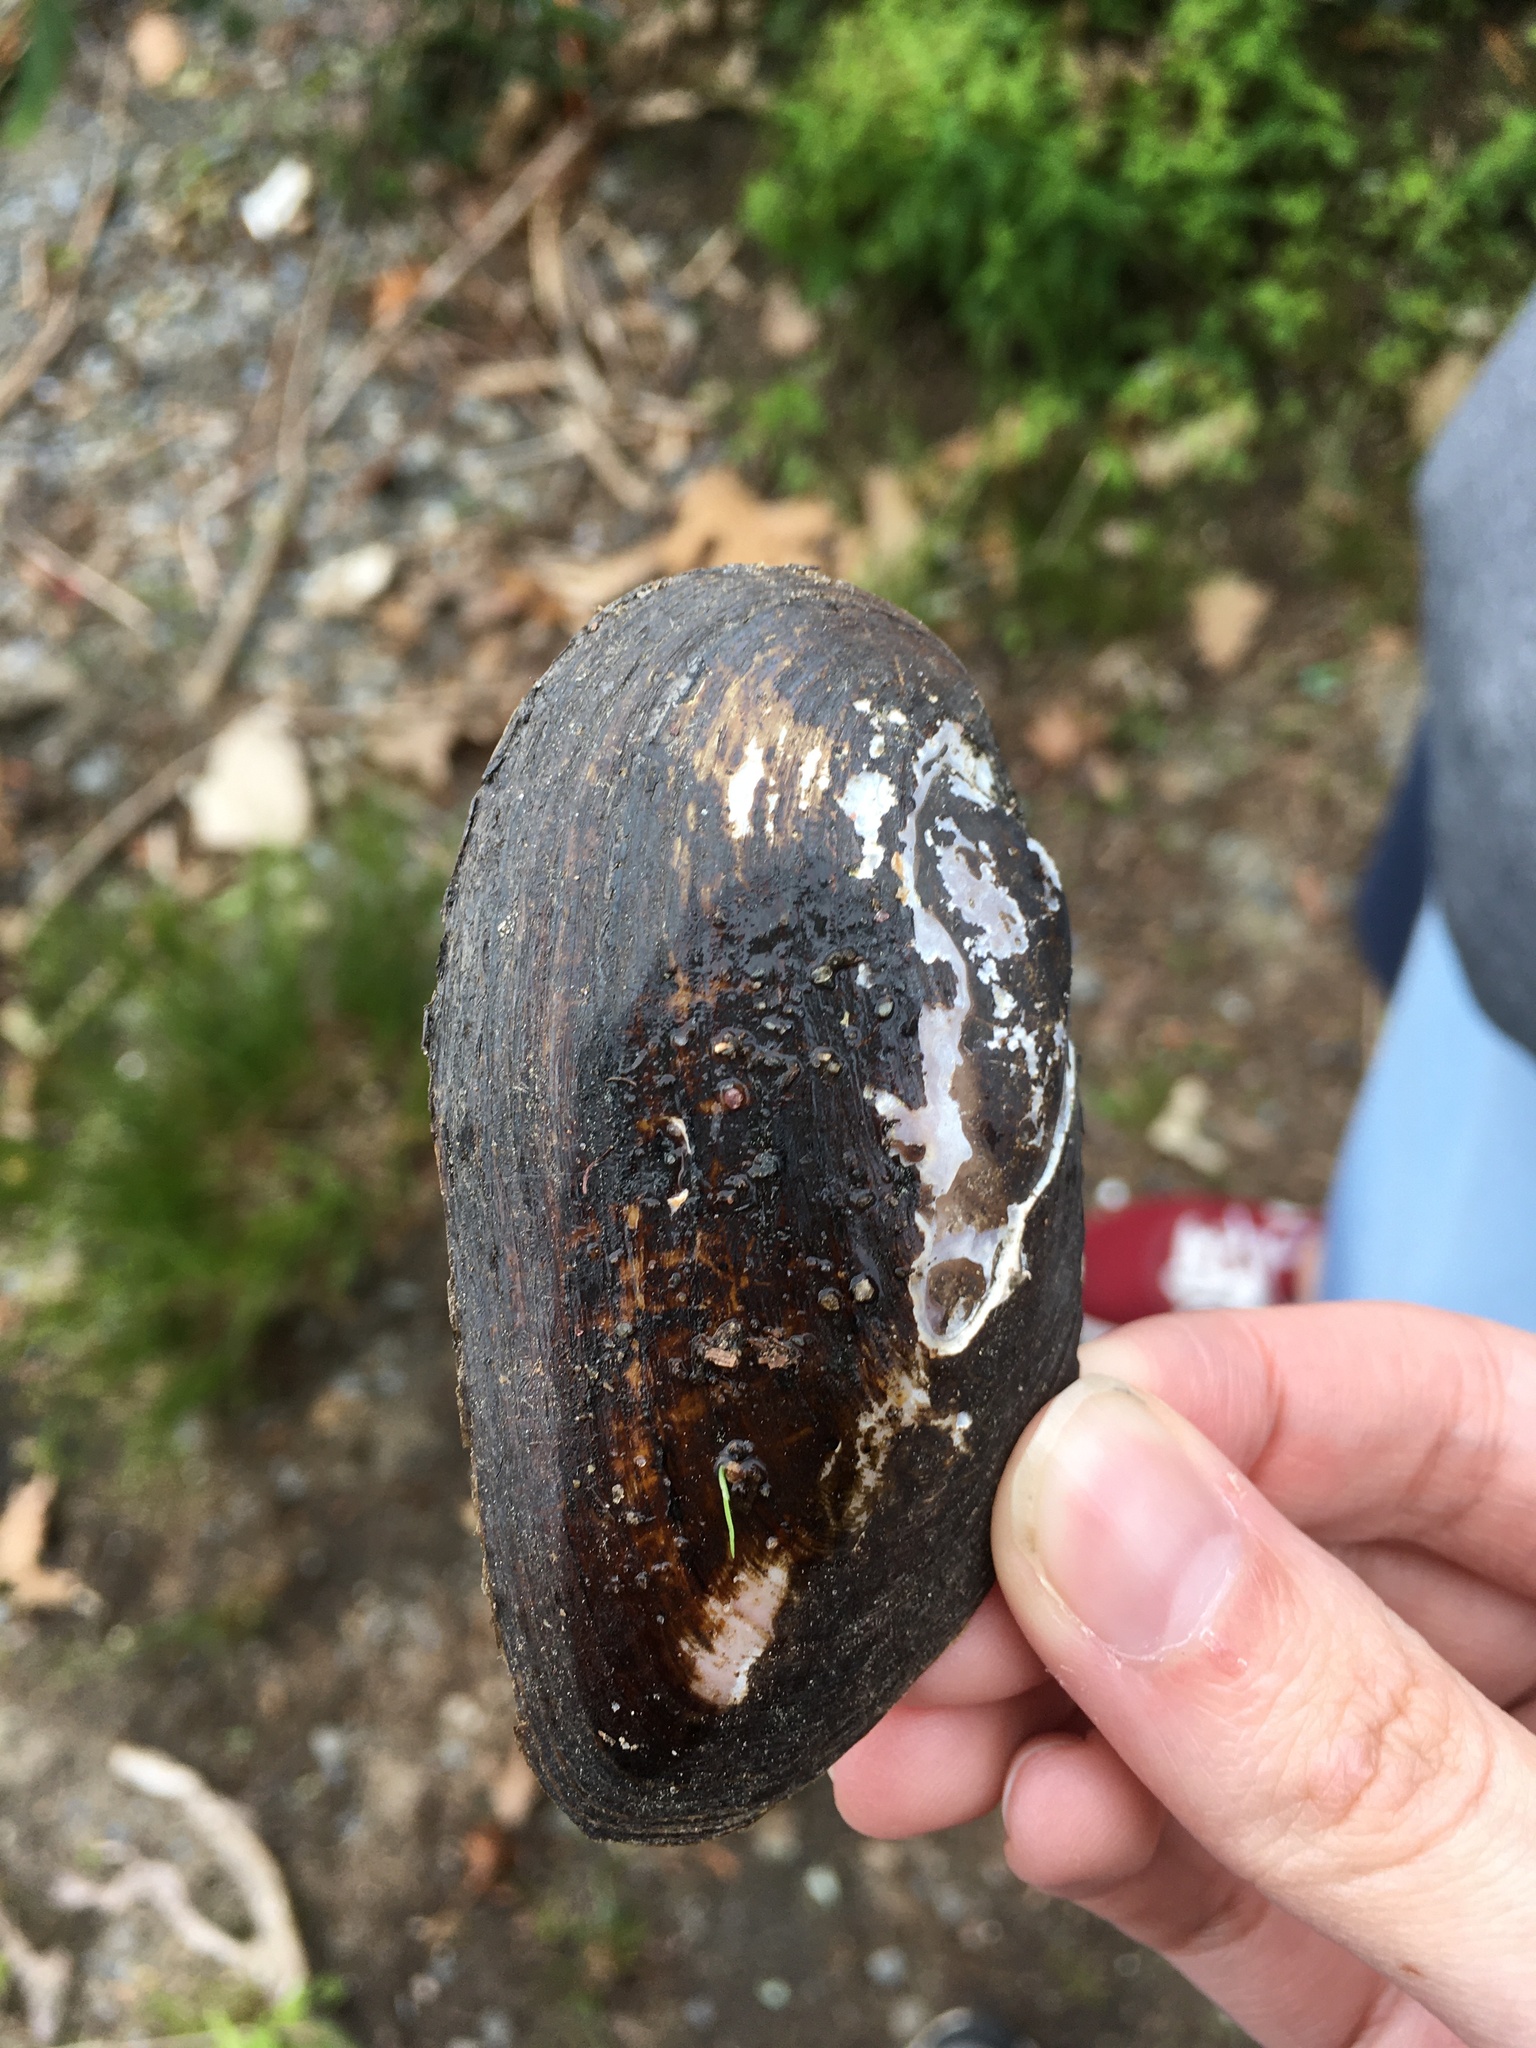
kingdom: Animalia
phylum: Mollusca
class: Bivalvia
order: Unionida
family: Unionidae
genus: Elliptio
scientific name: Elliptio complanata
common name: Eastern elliptio
